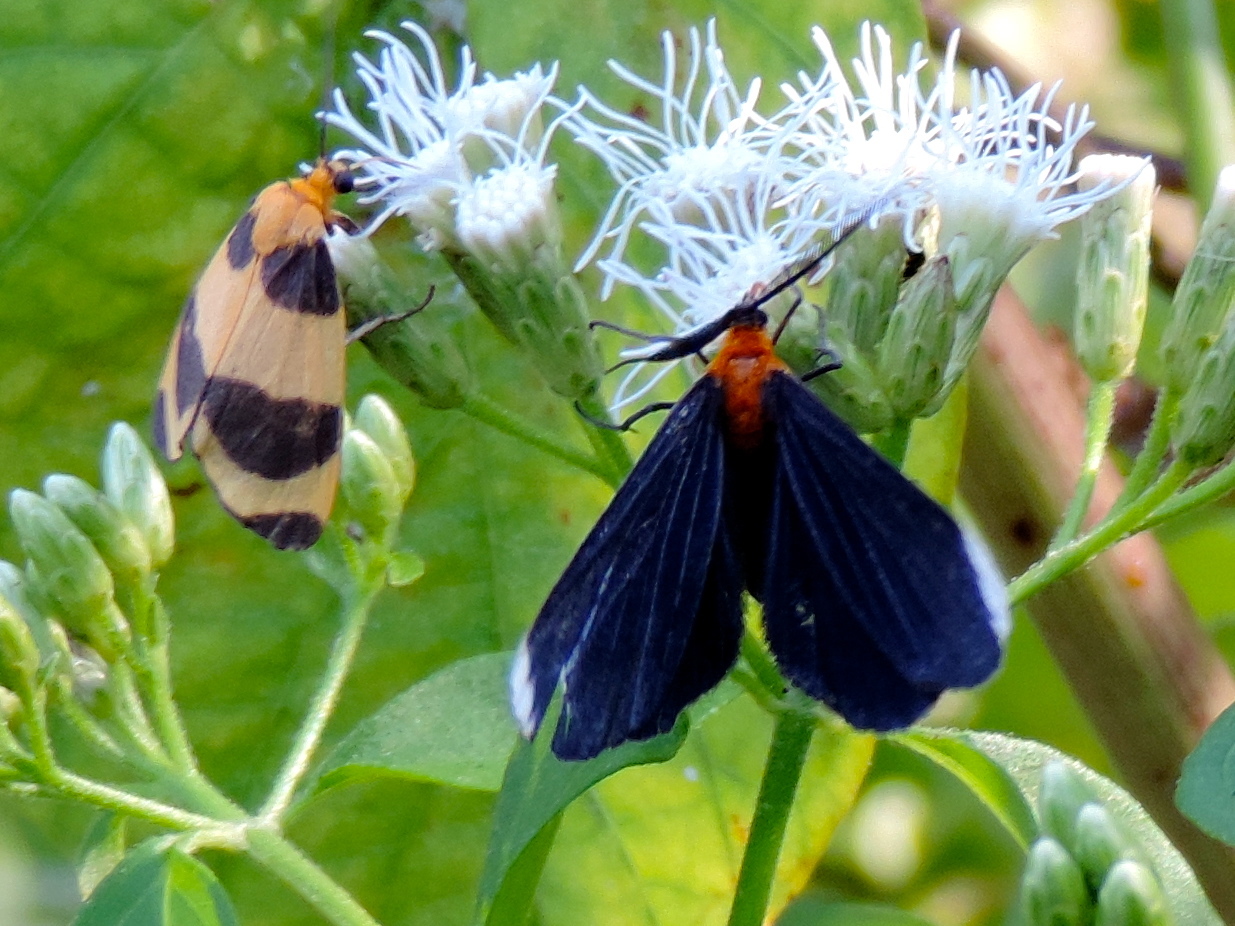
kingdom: Animalia
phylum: Arthropoda
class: Insecta
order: Lepidoptera
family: Erebidae
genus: Eudesmia
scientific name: Eudesmia menea
